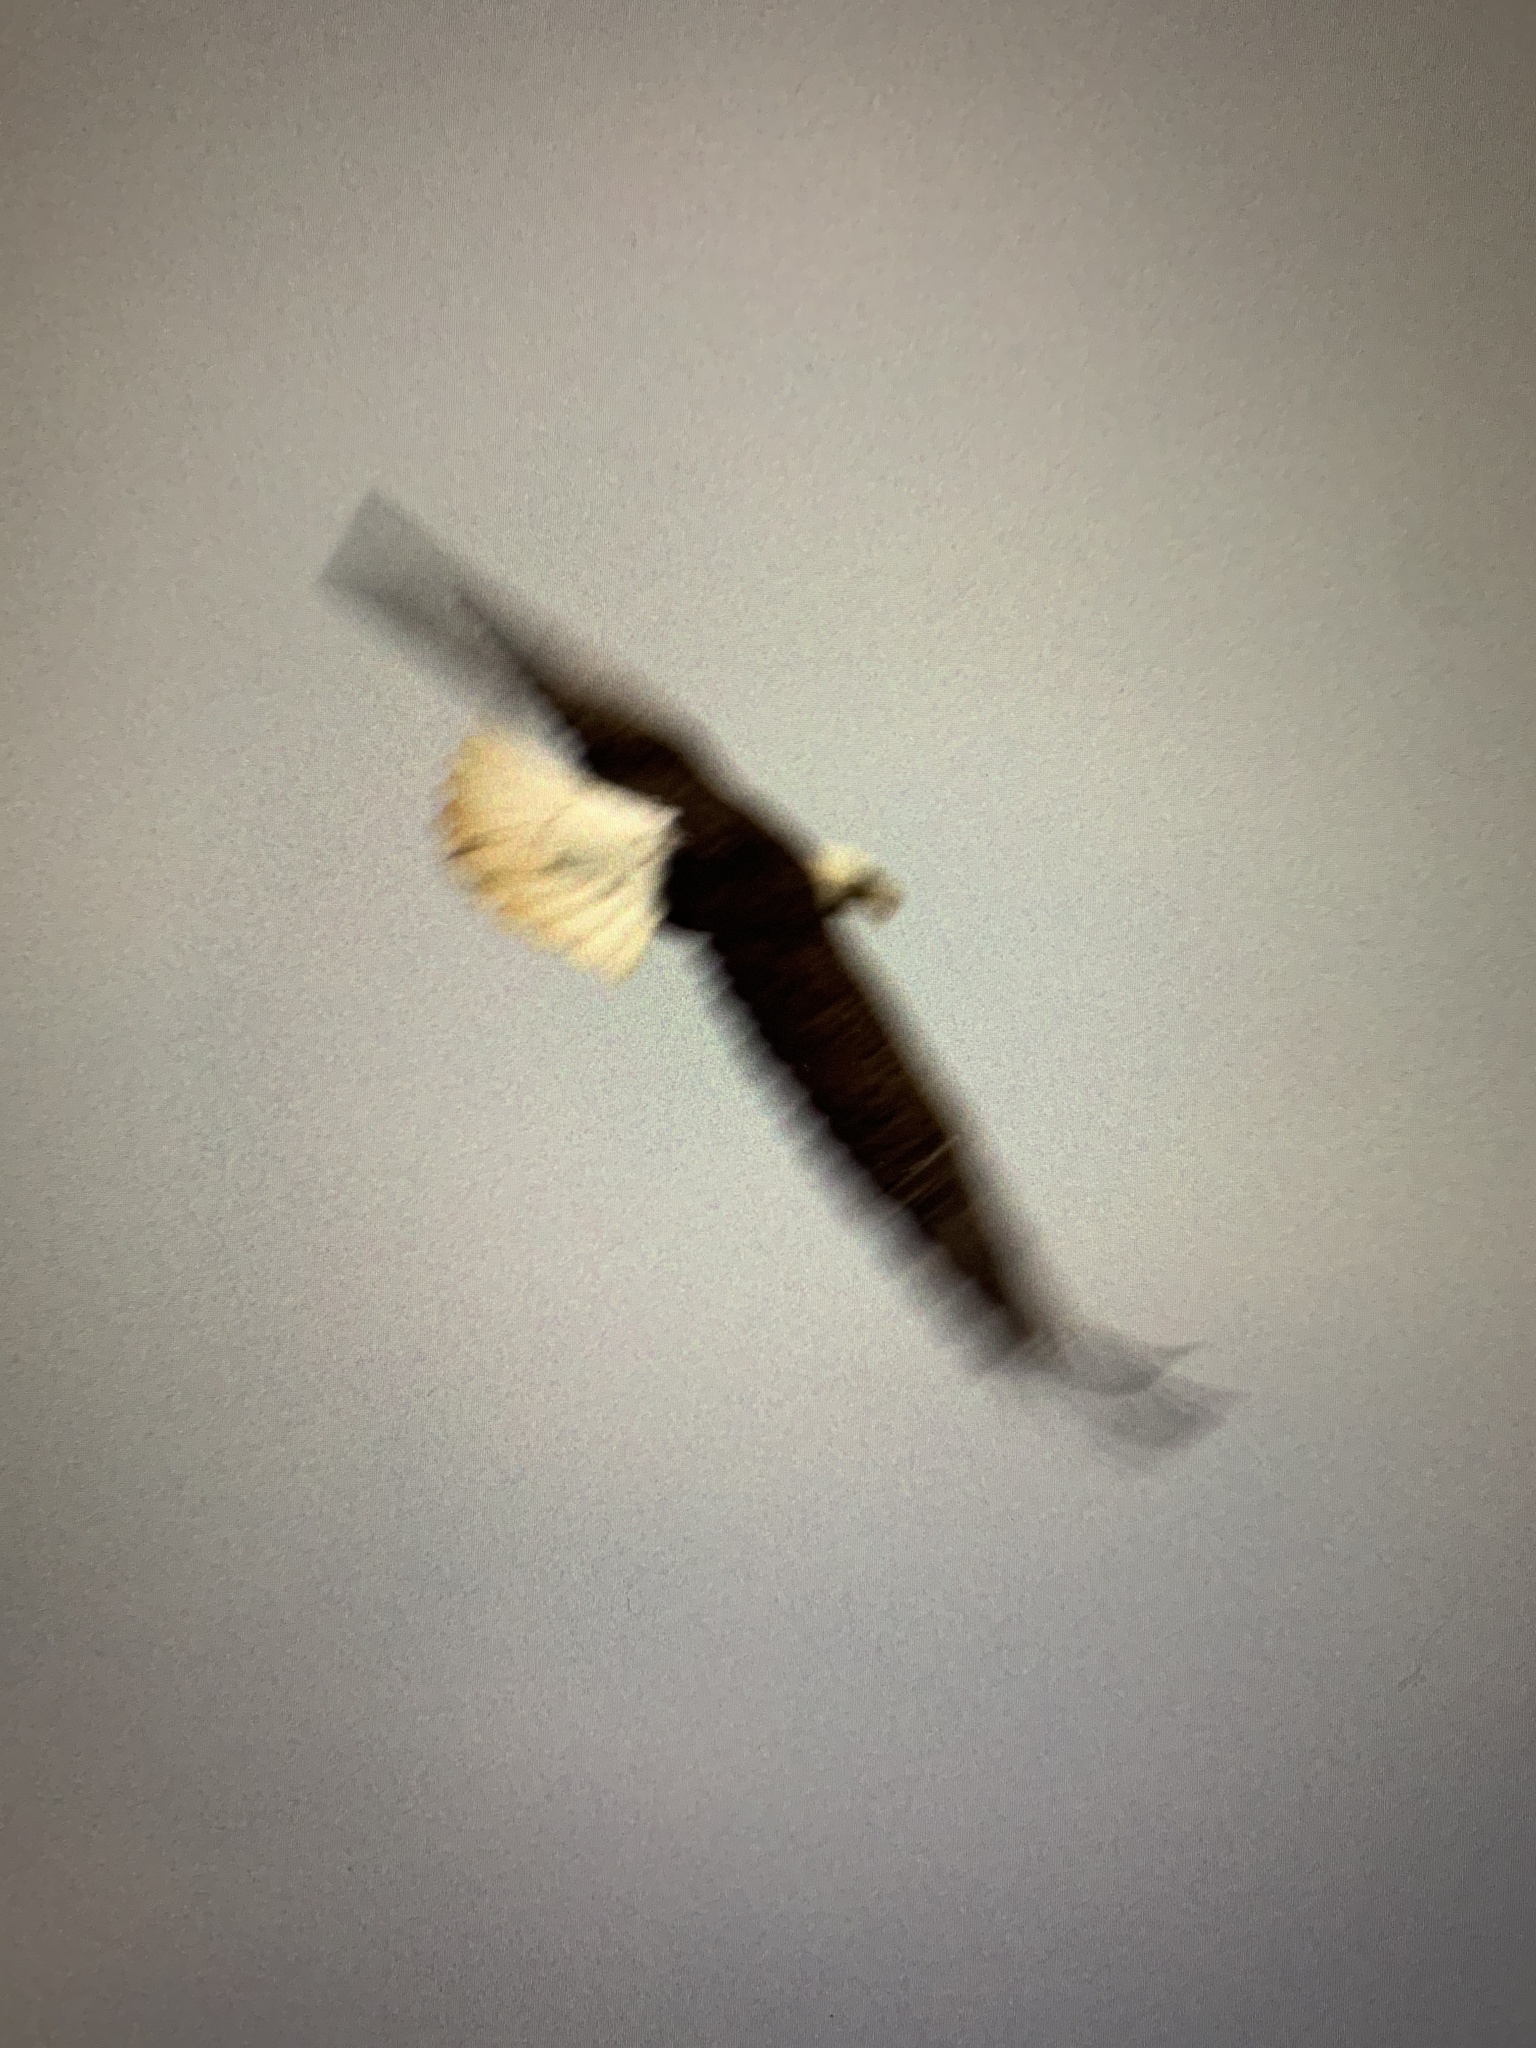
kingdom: Animalia
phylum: Chordata
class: Aves
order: Accipitriformes
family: Accipitridae
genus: Haliaeetus
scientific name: Haliaeetus leucocephalus
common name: Bald eagle
